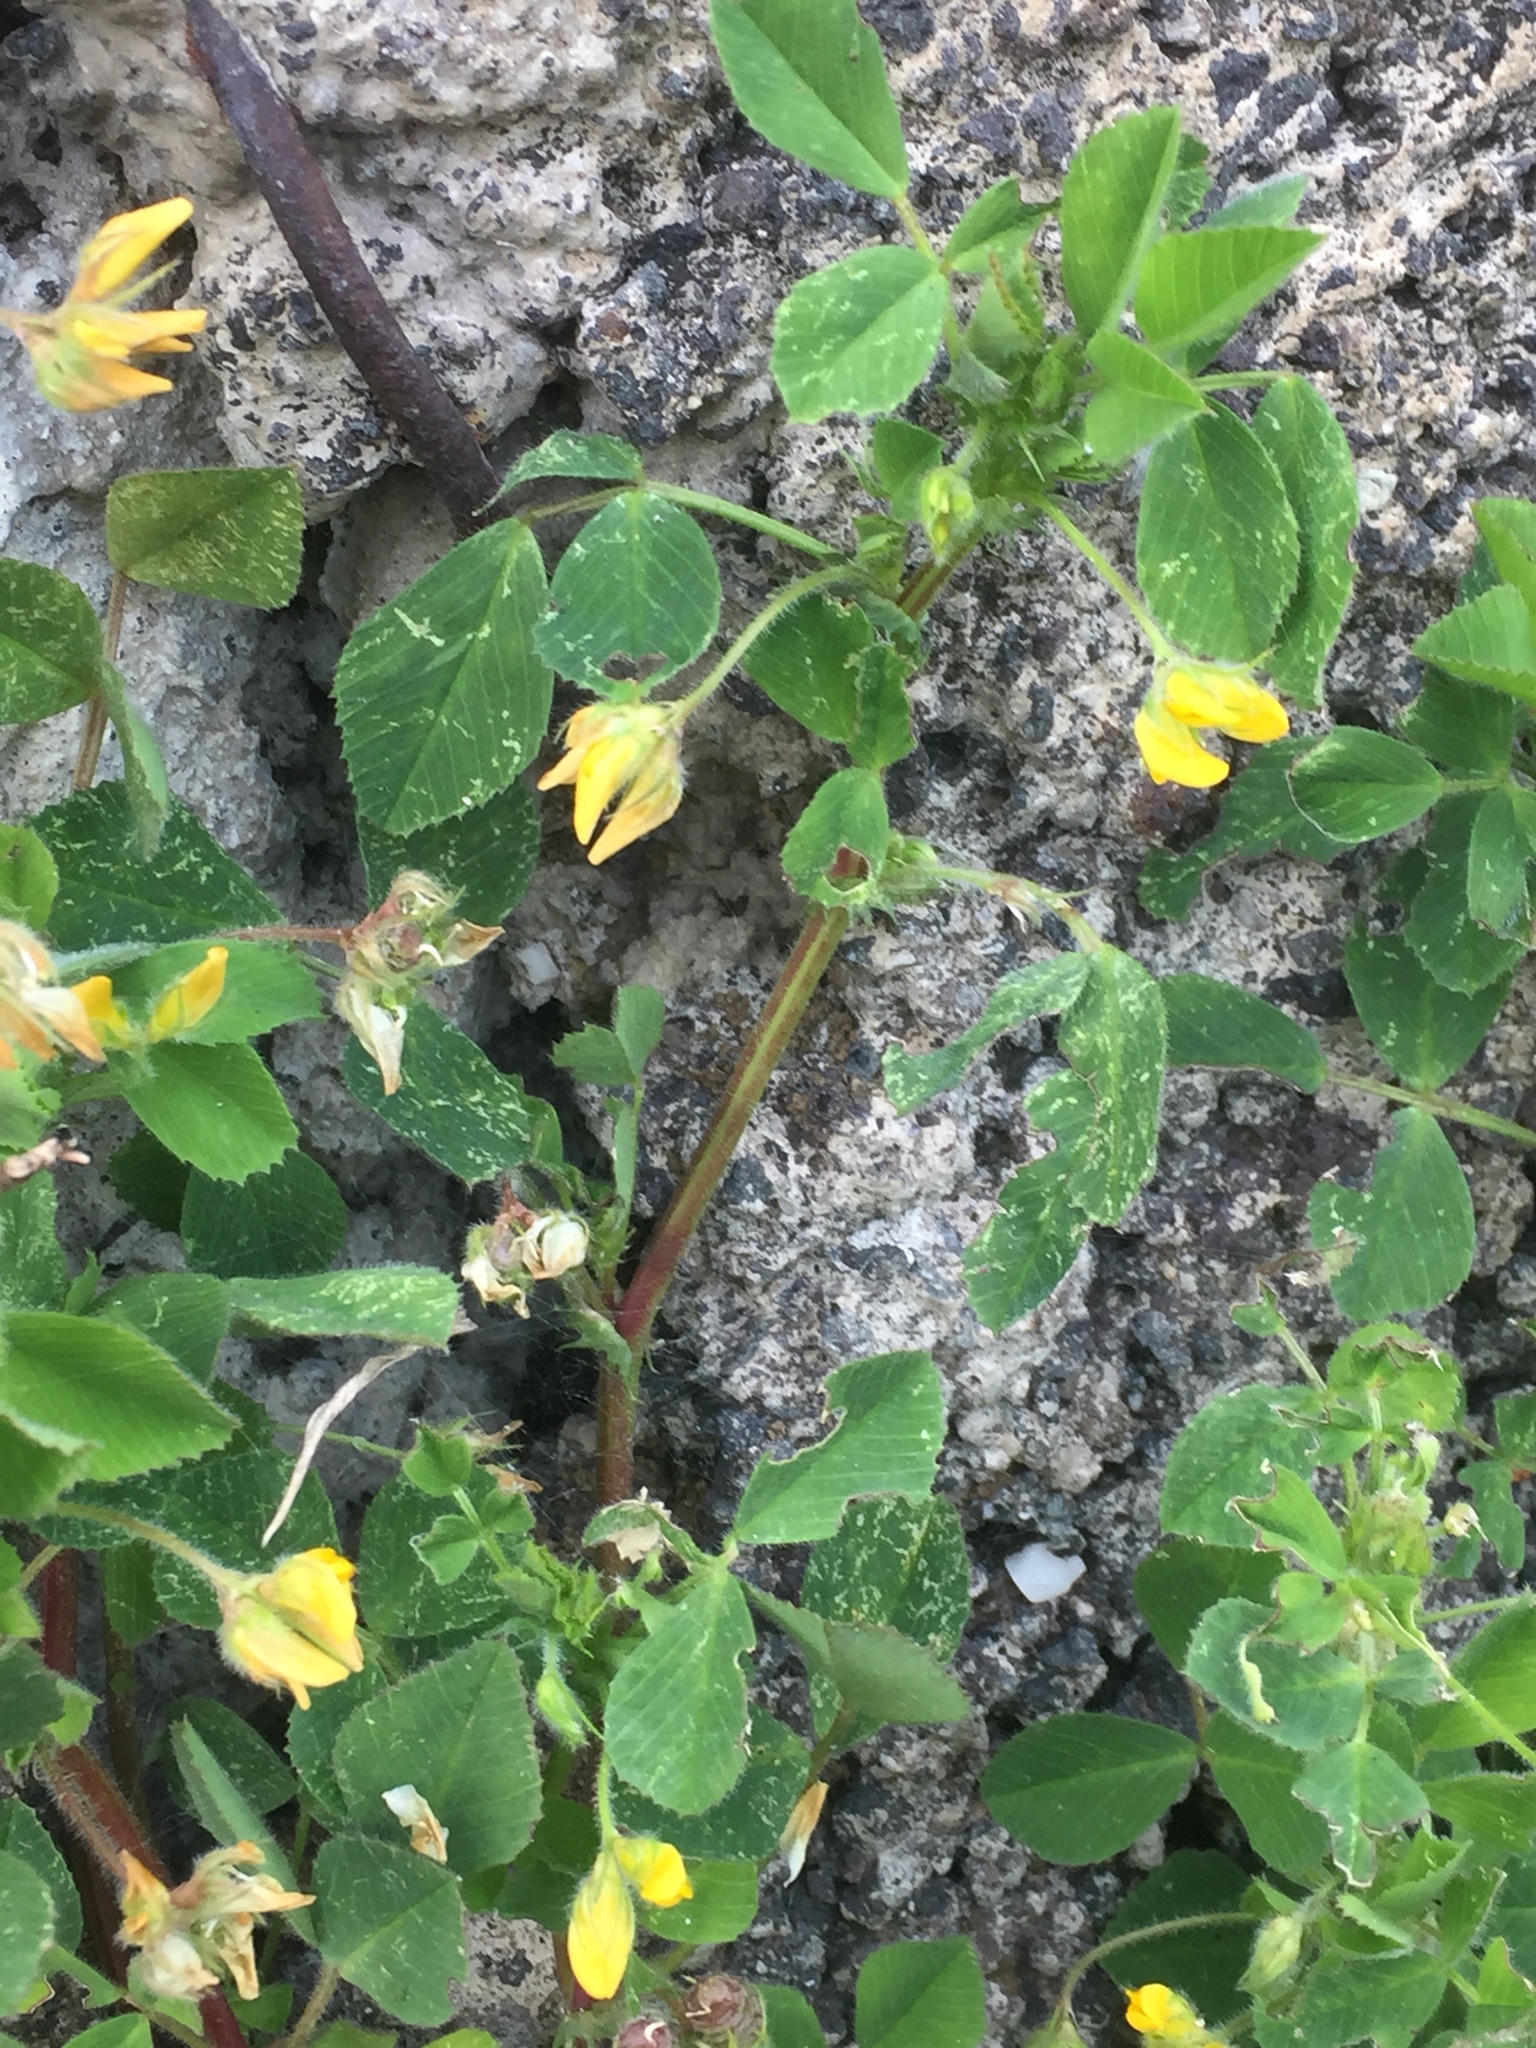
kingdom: Plantae
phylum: Tracheophyta
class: Magnoliopsida
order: Fabales
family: Fabaceae
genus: Medicago
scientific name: Medicago polymorpha
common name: Burclover
